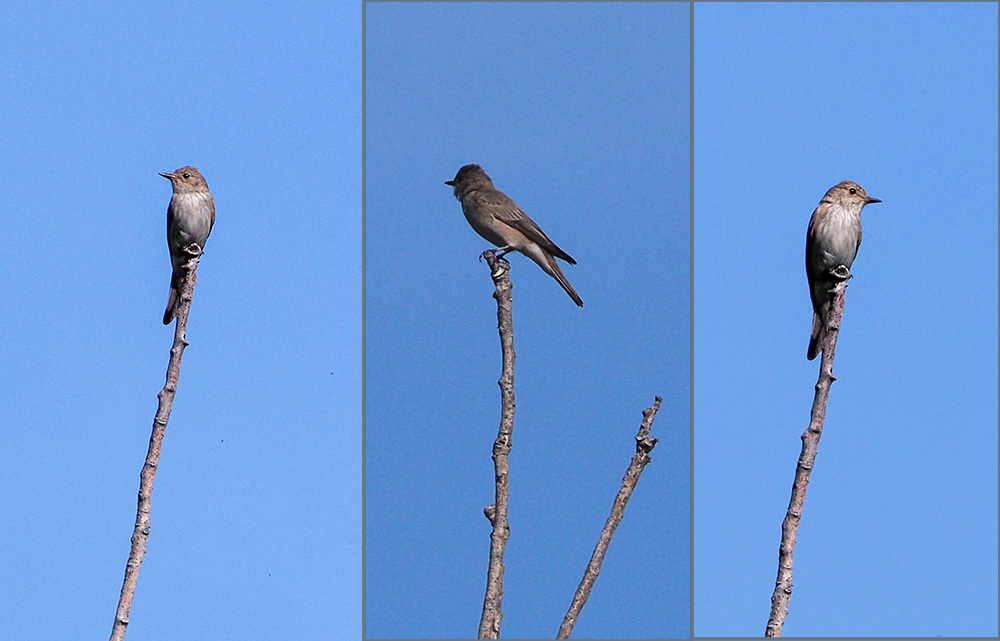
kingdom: Animalia
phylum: Chordata
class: Aves
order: Passeriformes
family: Muscicapidae
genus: Muscicapa
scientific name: Muscicapa striata
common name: Spotted flycatcher
